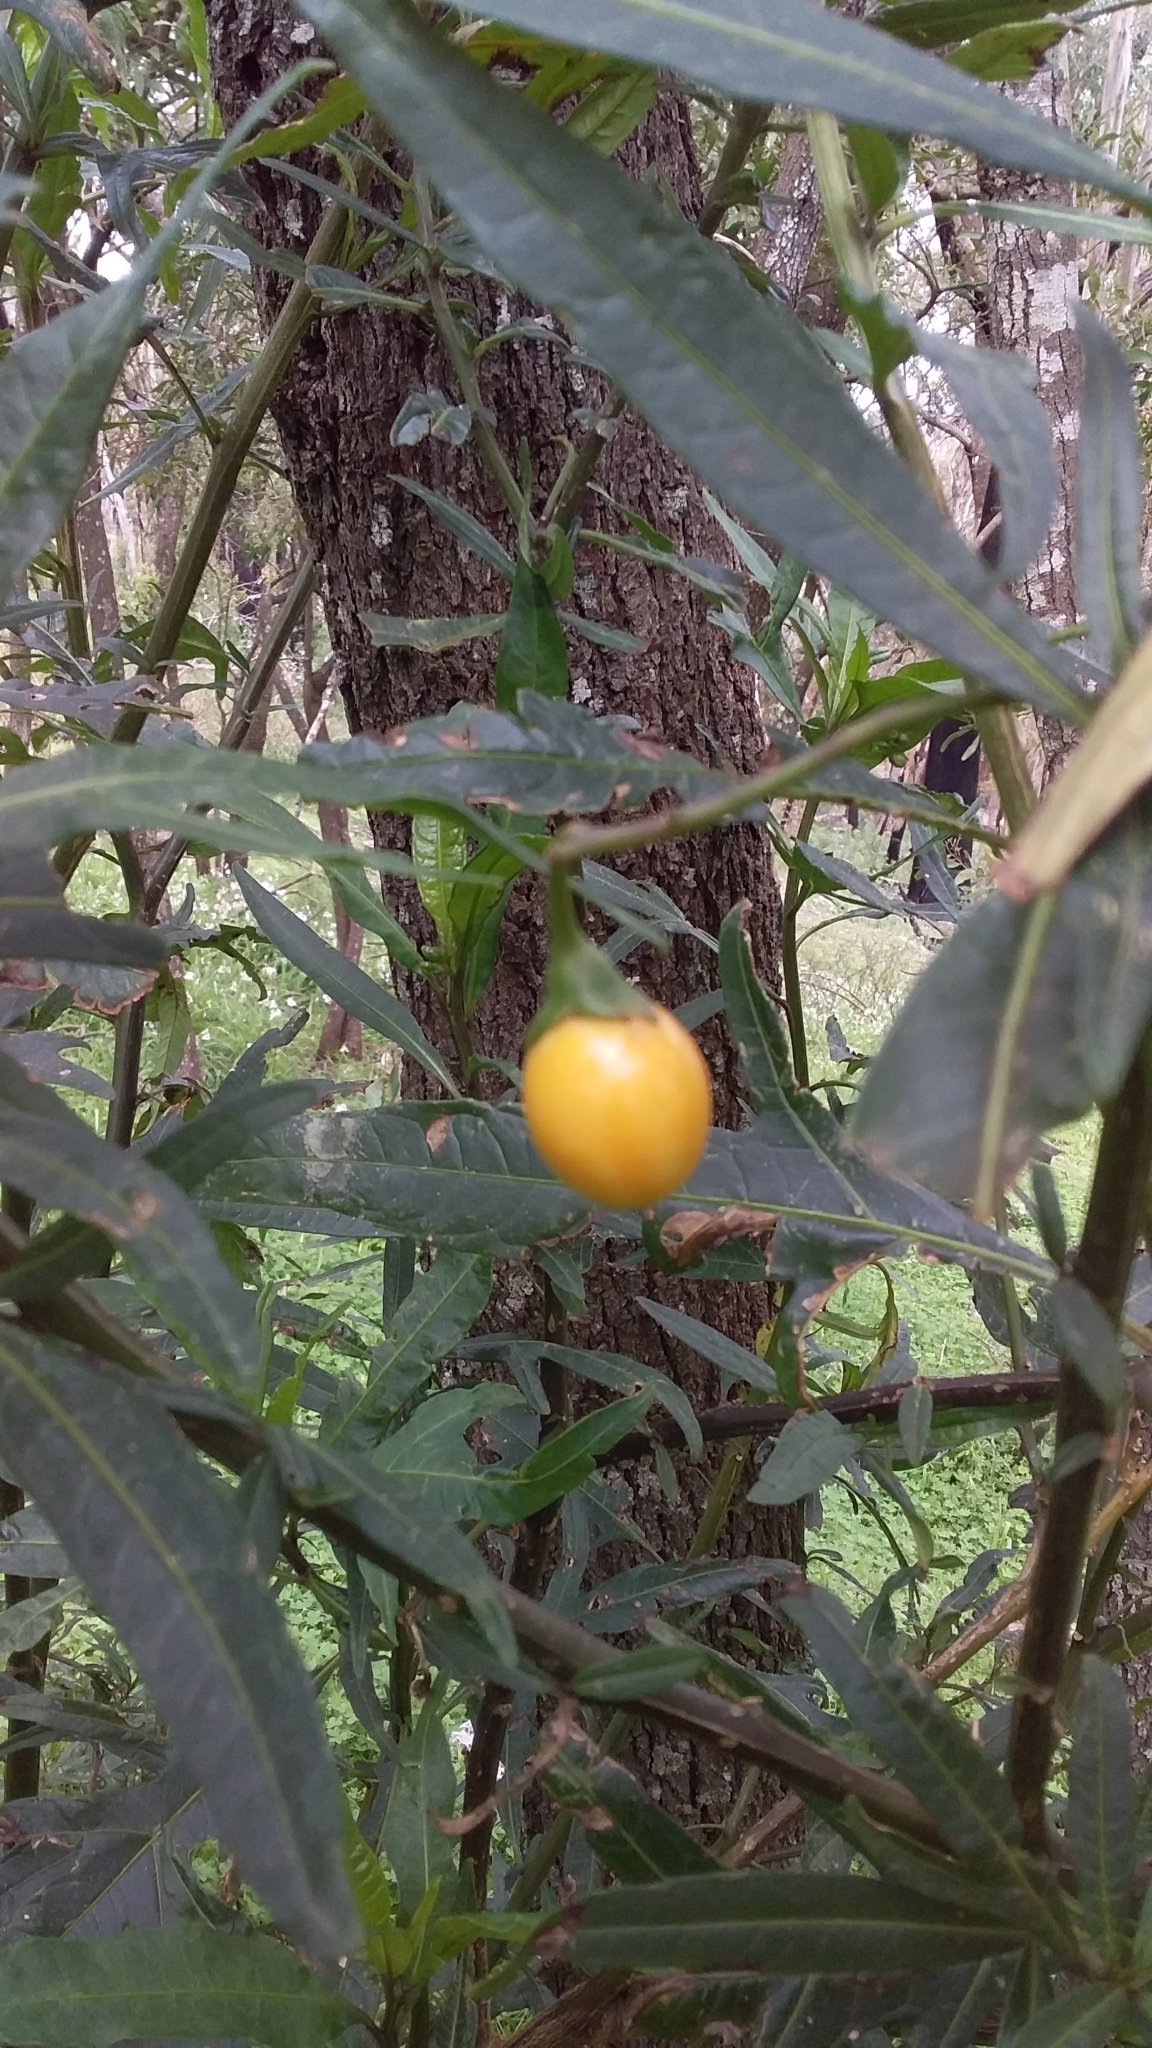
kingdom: Plantae
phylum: Tracheophyta
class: Magnoliopsida
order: Solanales
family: Solanaceae
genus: Solanum
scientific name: Solanum laciniatum
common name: Kangaroo-apple
